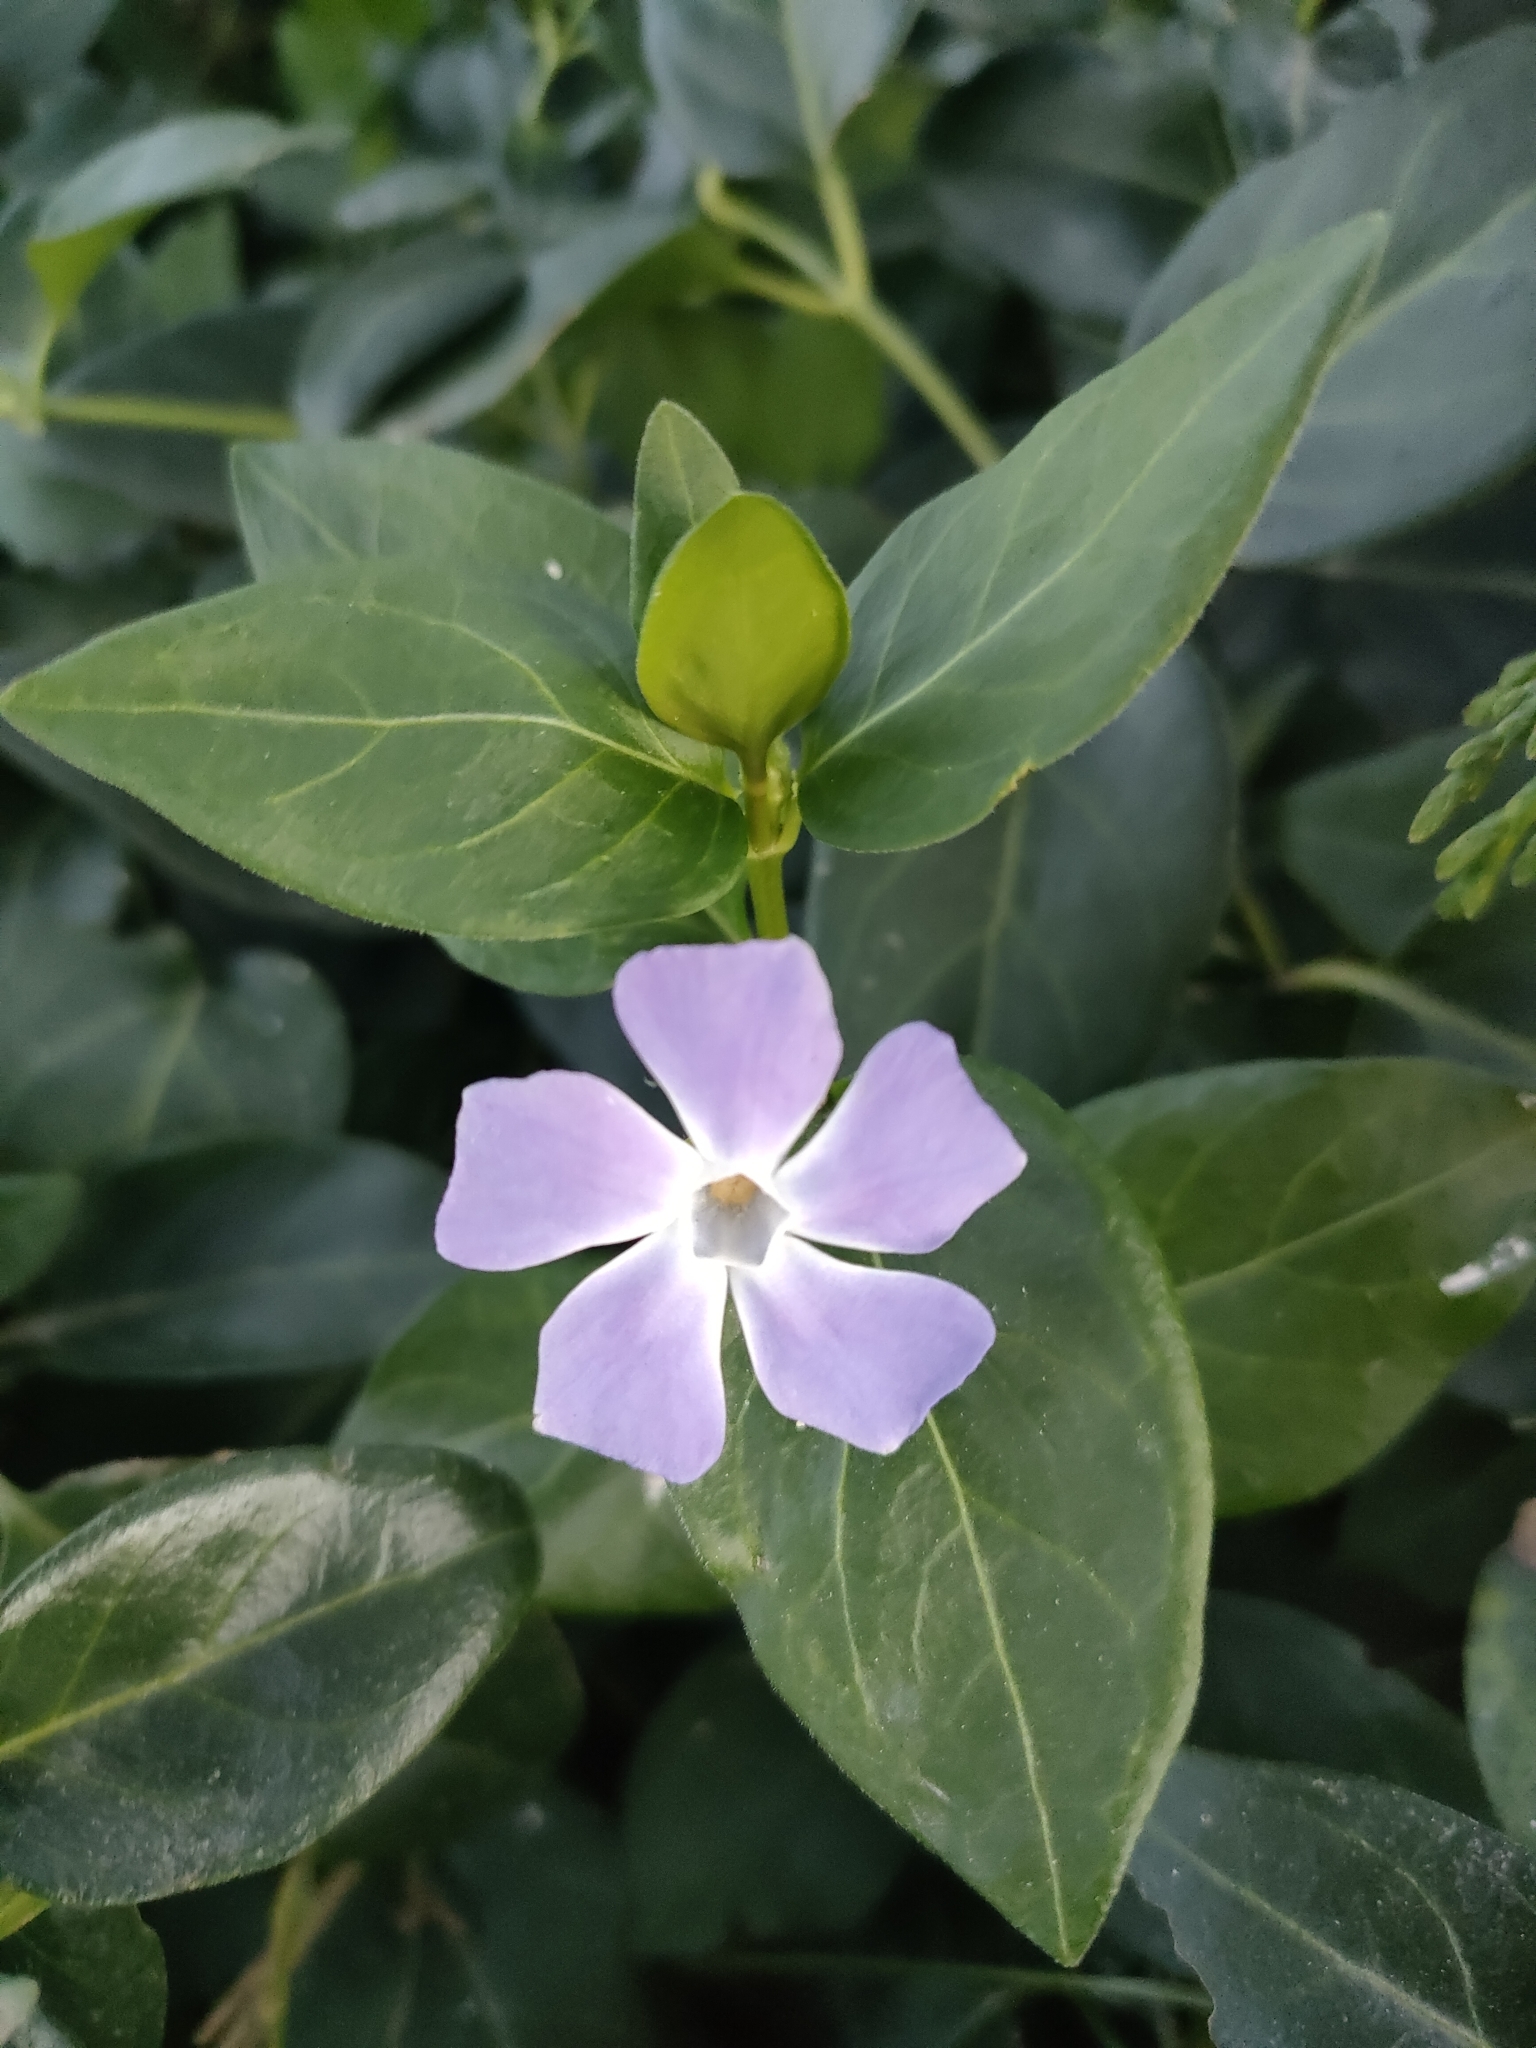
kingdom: Plantae
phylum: Tracheophyta
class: Magnoliopsida
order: Gentianales
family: Apocynaceae
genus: Vinca
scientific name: Vinca major
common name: Greater periwinkle
